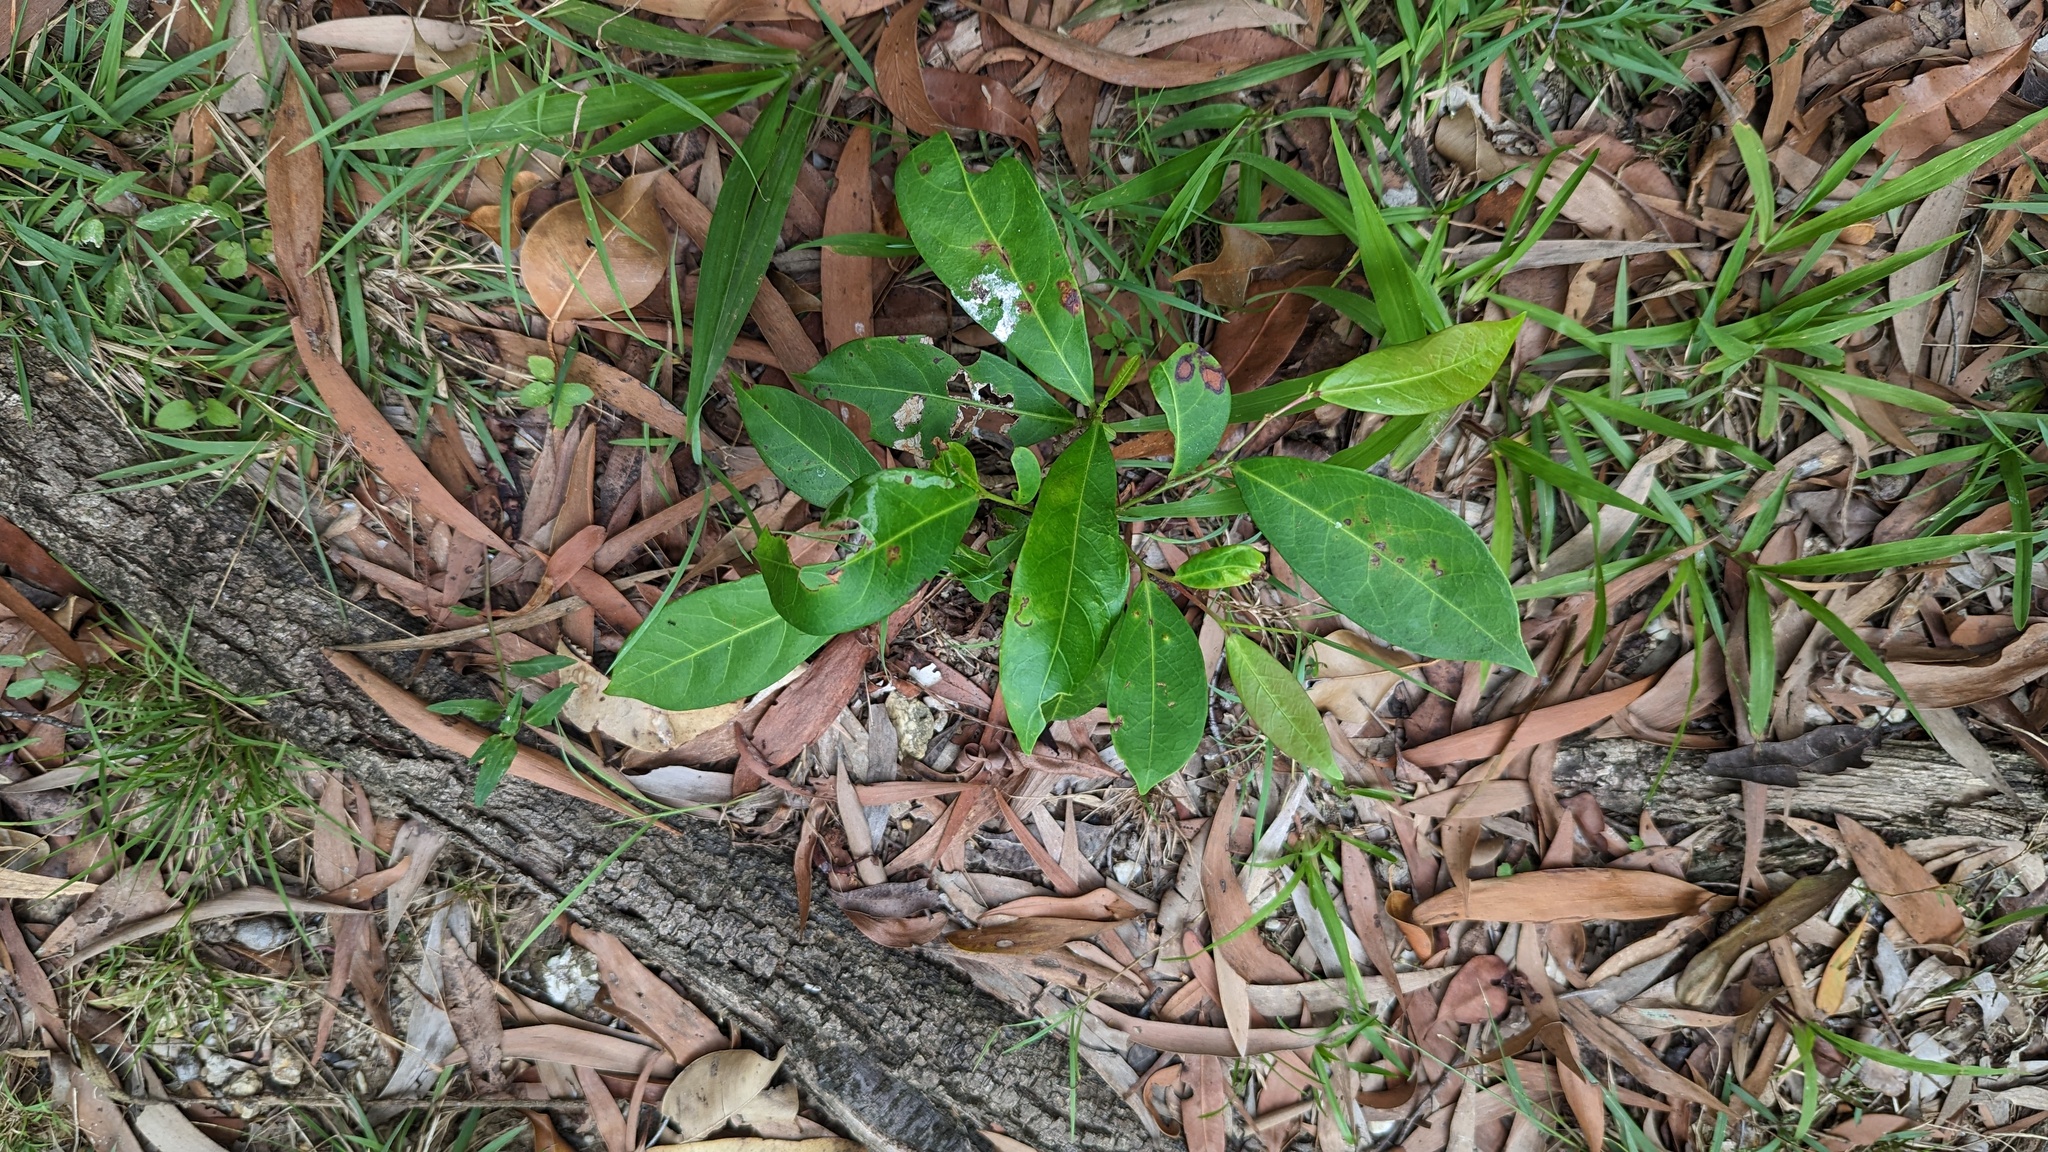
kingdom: Plantae
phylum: Tracheophyta
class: Magnoliopsida
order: Malpighiales
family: Phyllanthaceae
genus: Glochidion
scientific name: Glochidion ferdinandi
